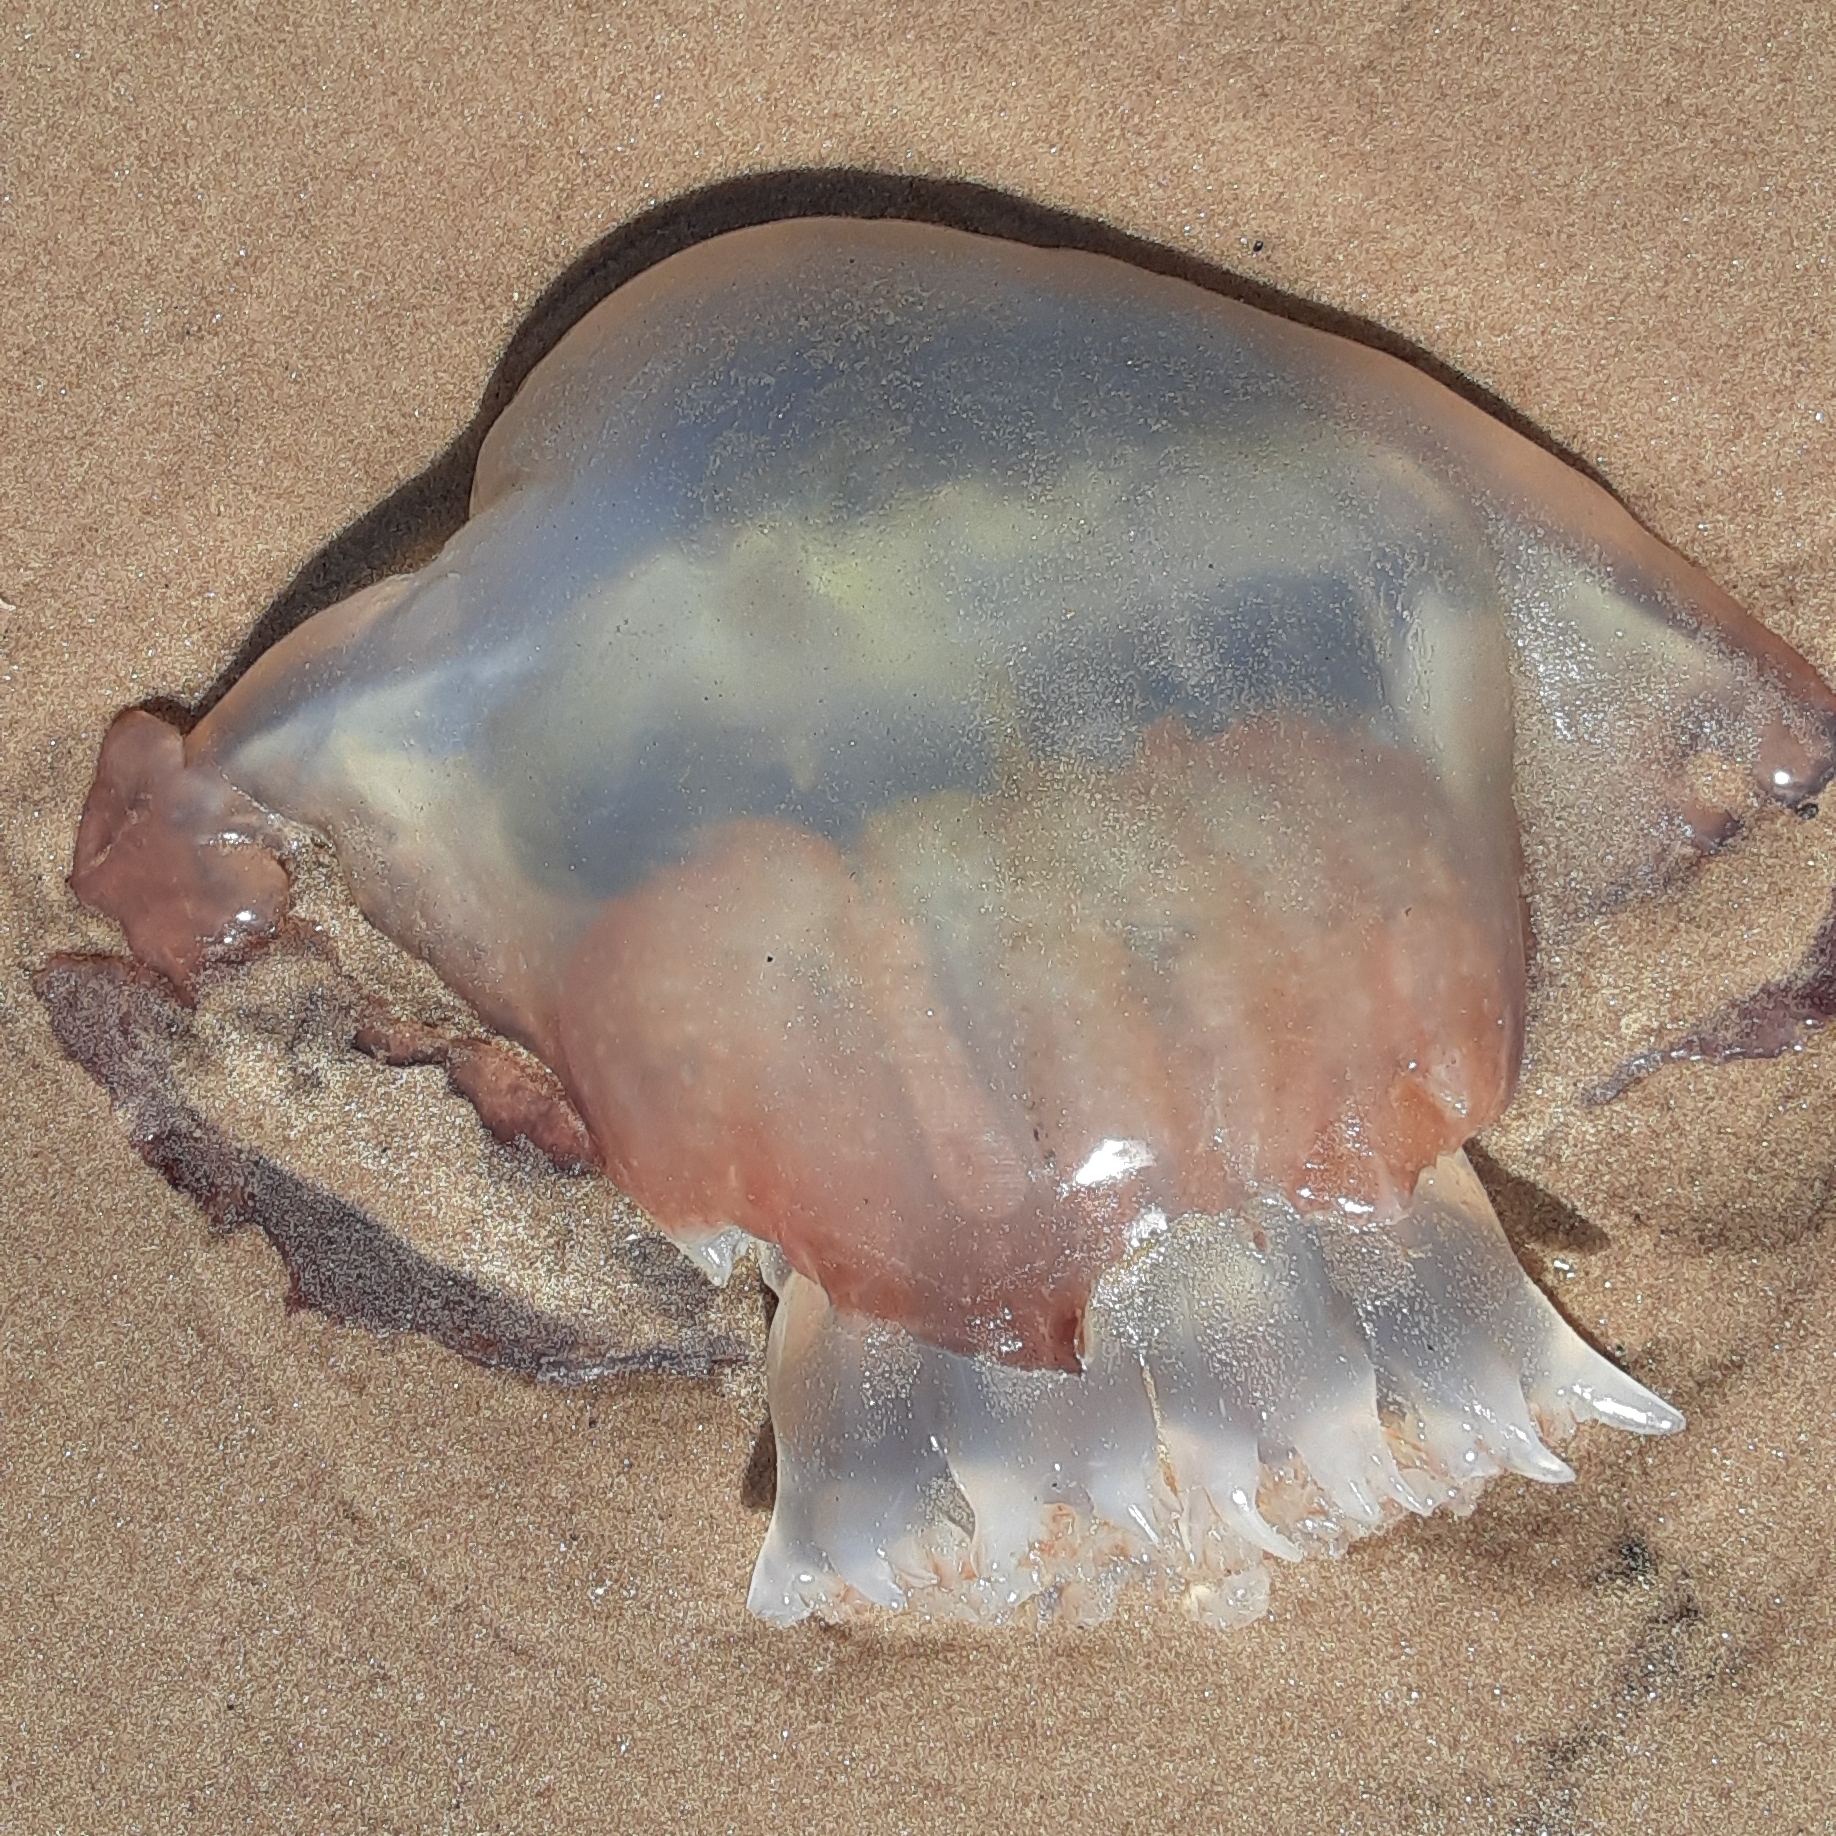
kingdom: Animalia
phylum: Cnidaria
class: Scyphozoa
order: Rhizostomeae
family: Stomolophidae
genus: Stomolophus
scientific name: Stomolophus meleagris
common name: Cabbagehead
